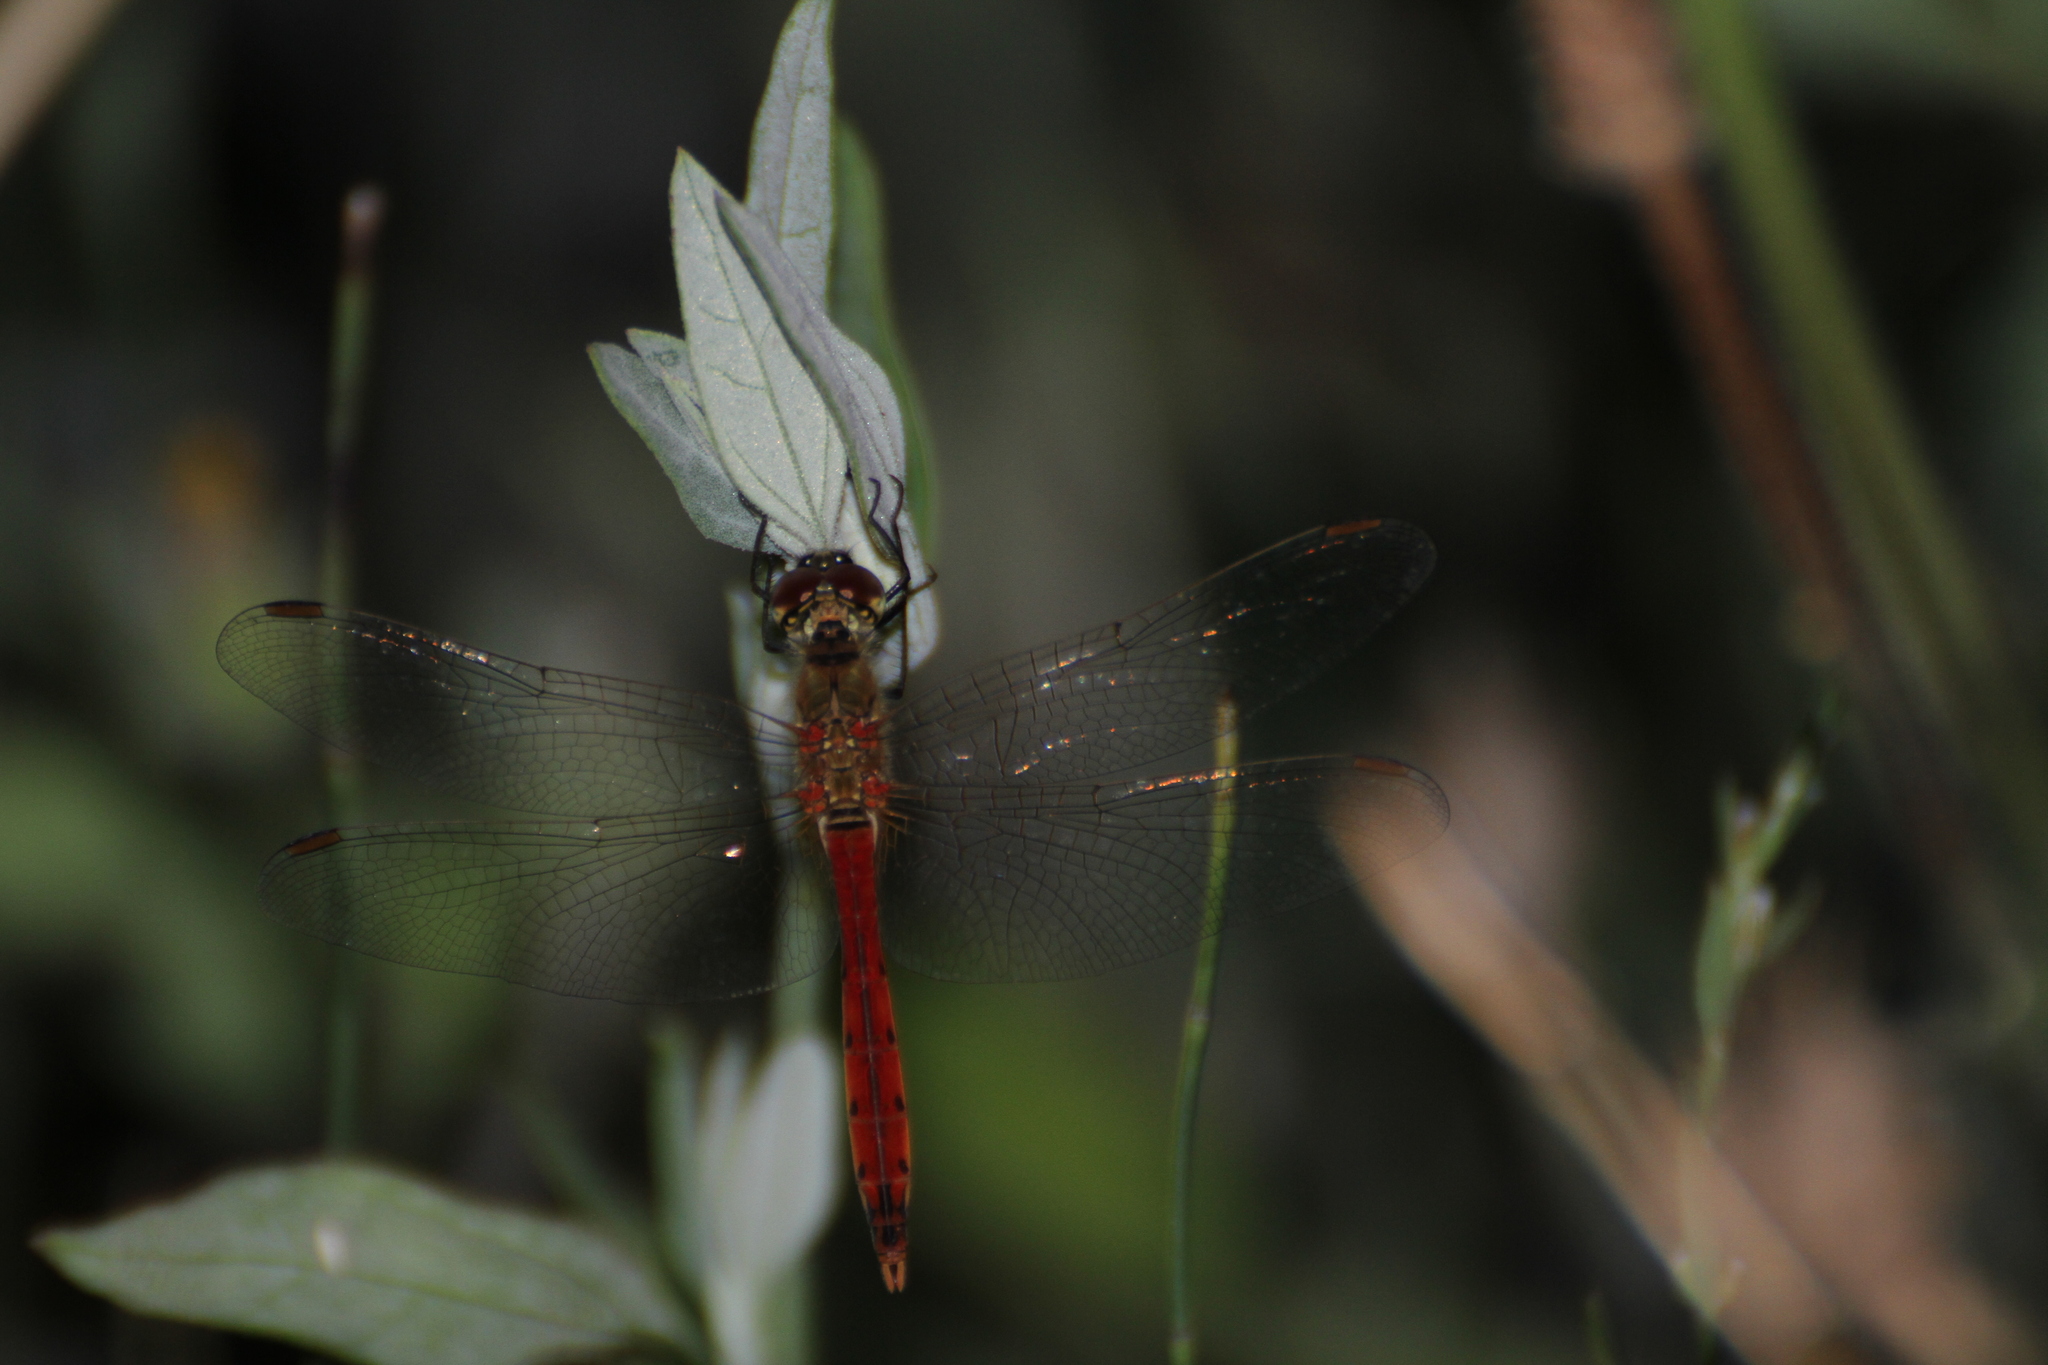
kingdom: Animalia
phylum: Arthropoda
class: Insecta
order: Odonata
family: Libellulidae
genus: Sympetrum
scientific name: Sympetrum depressiusculum
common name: Spotted darter
